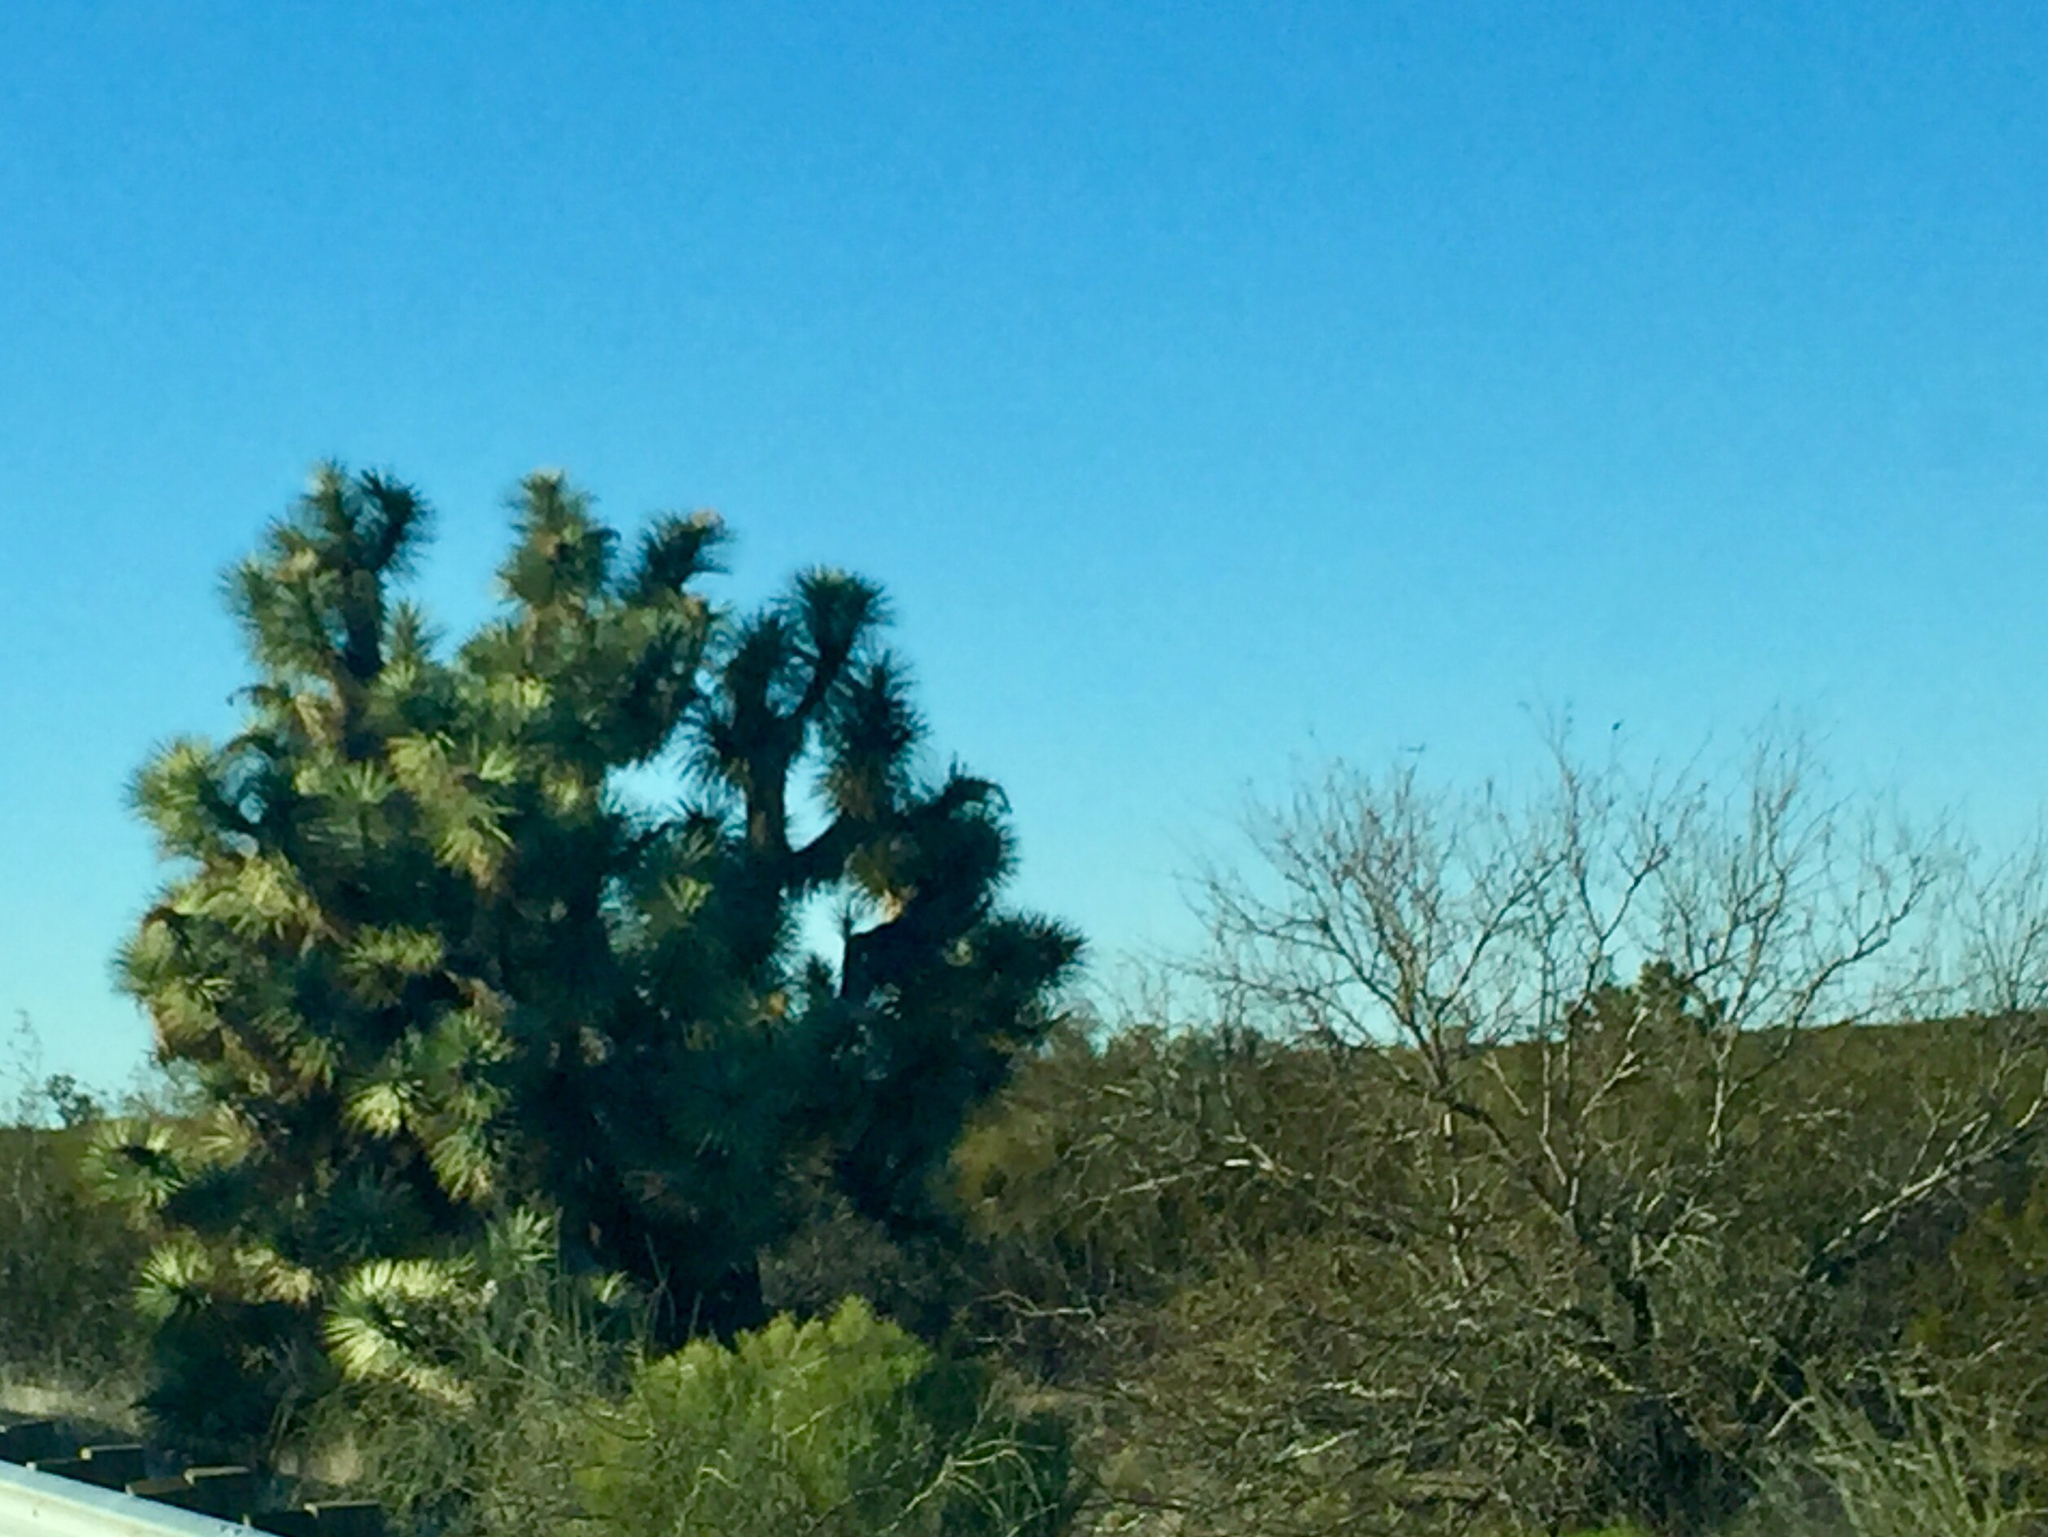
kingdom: Plantae
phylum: Tracheophyta
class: Liliopsida
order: Asparagales
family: Asparagaceae
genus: Yucca
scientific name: Yucca brevifolia
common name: Joshua tree
